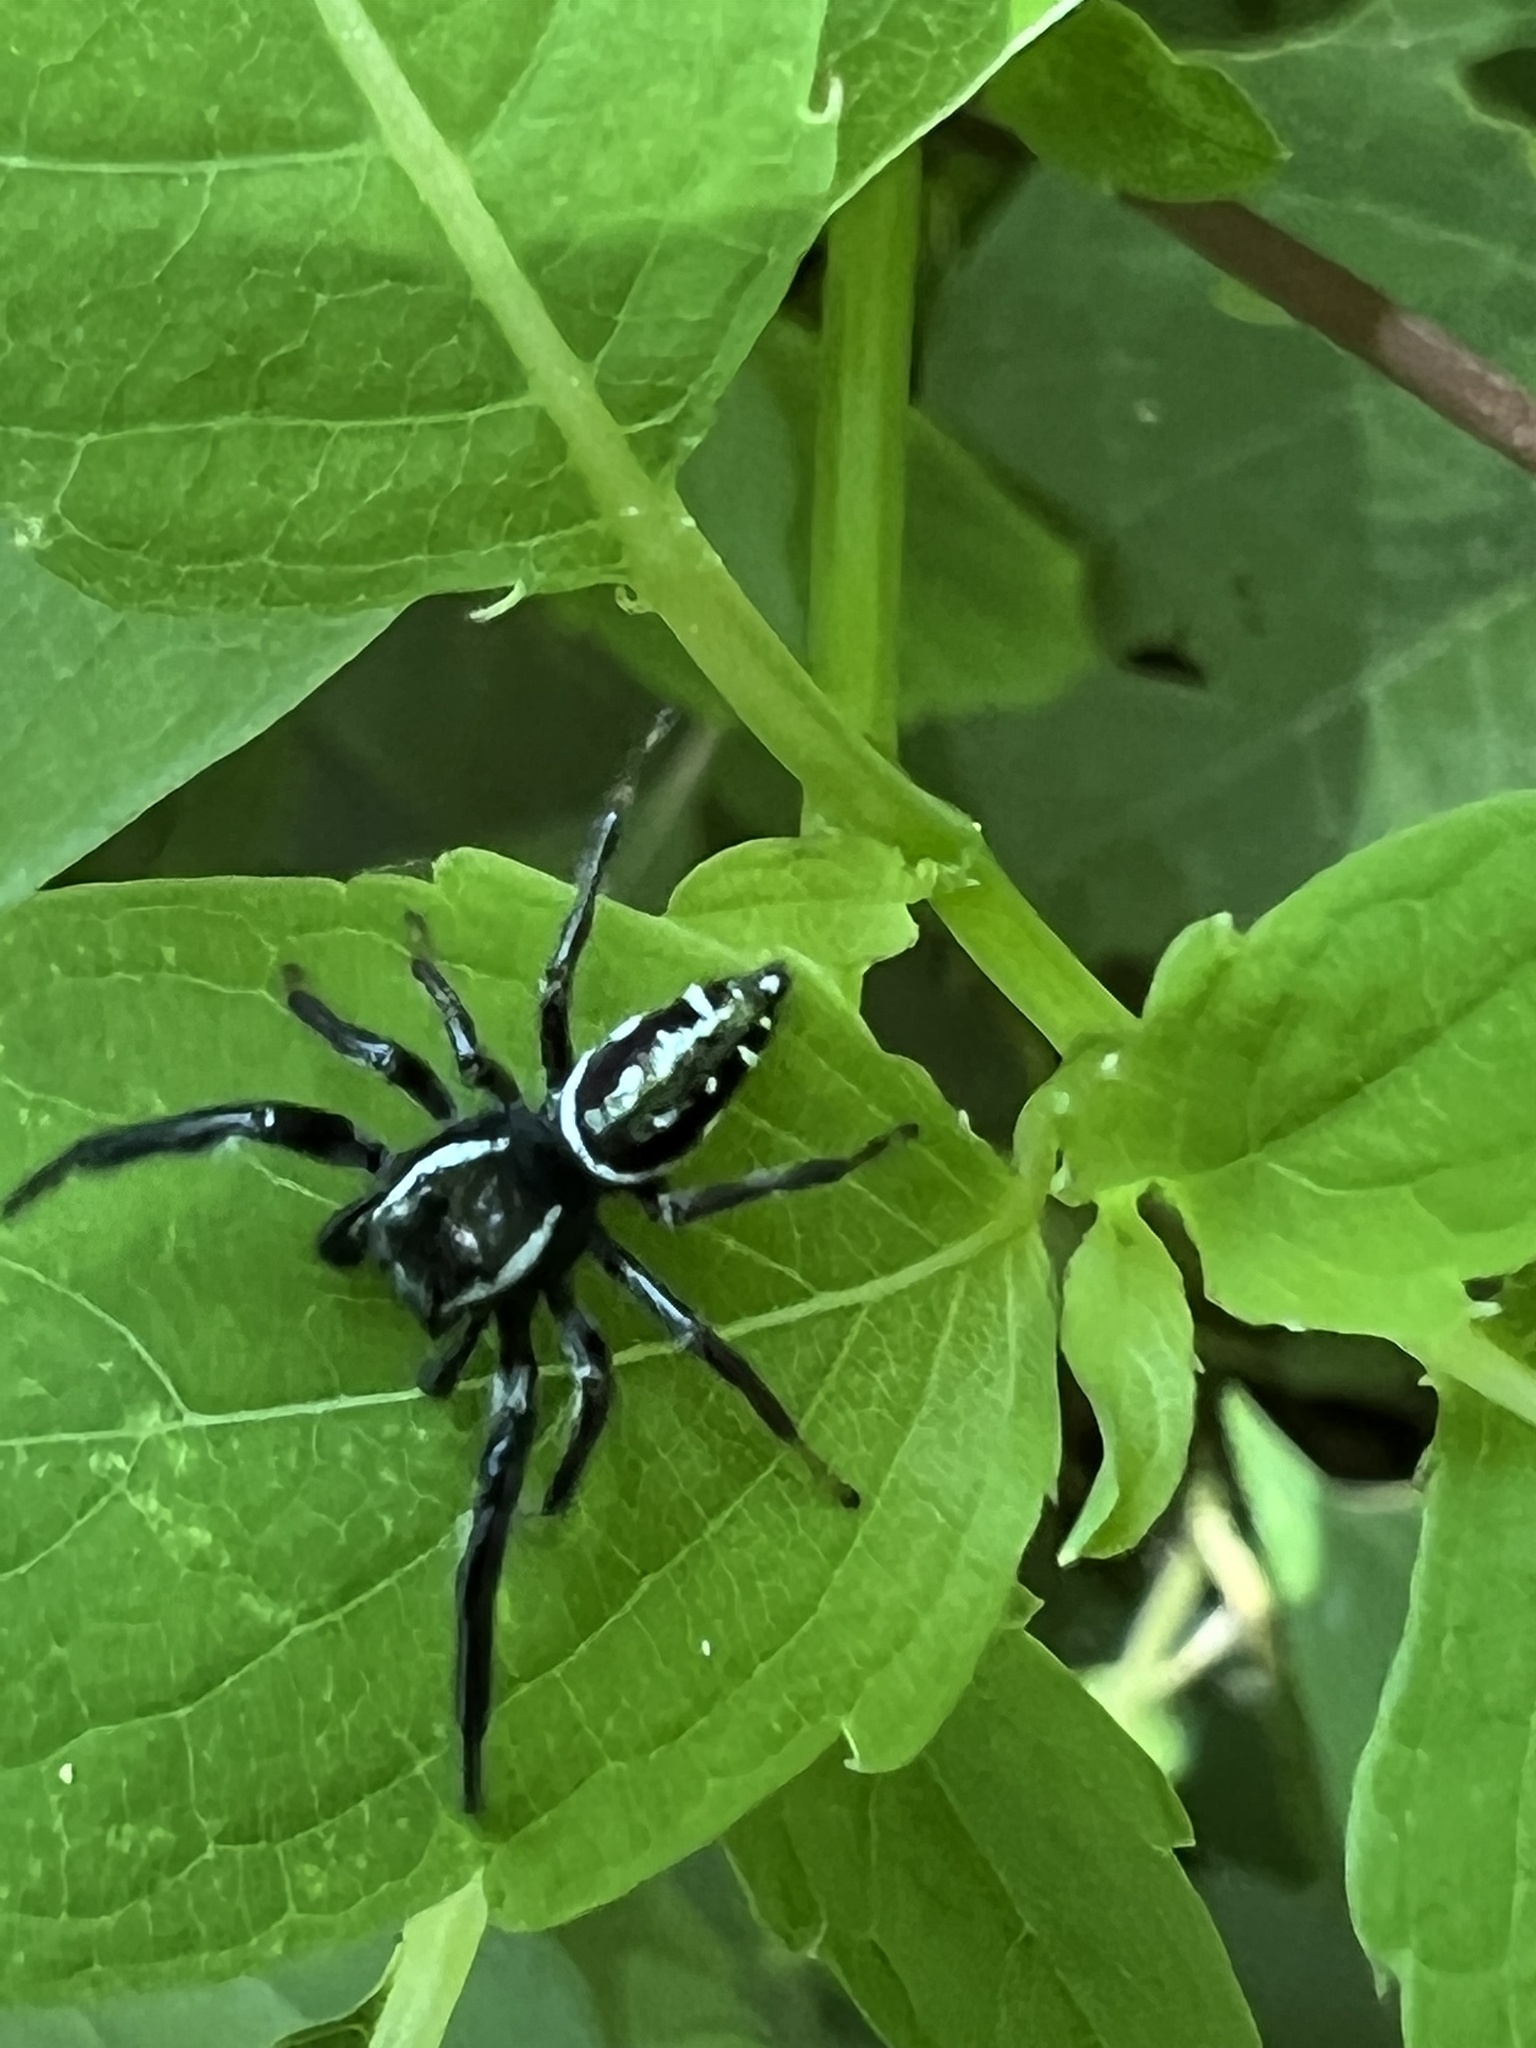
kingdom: Animalia
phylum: Arthropoda
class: Arachnida
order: Araneae
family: Salticidae
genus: Paraphidippus
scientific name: Paraphidippus aurantius
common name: Jumping spiders
